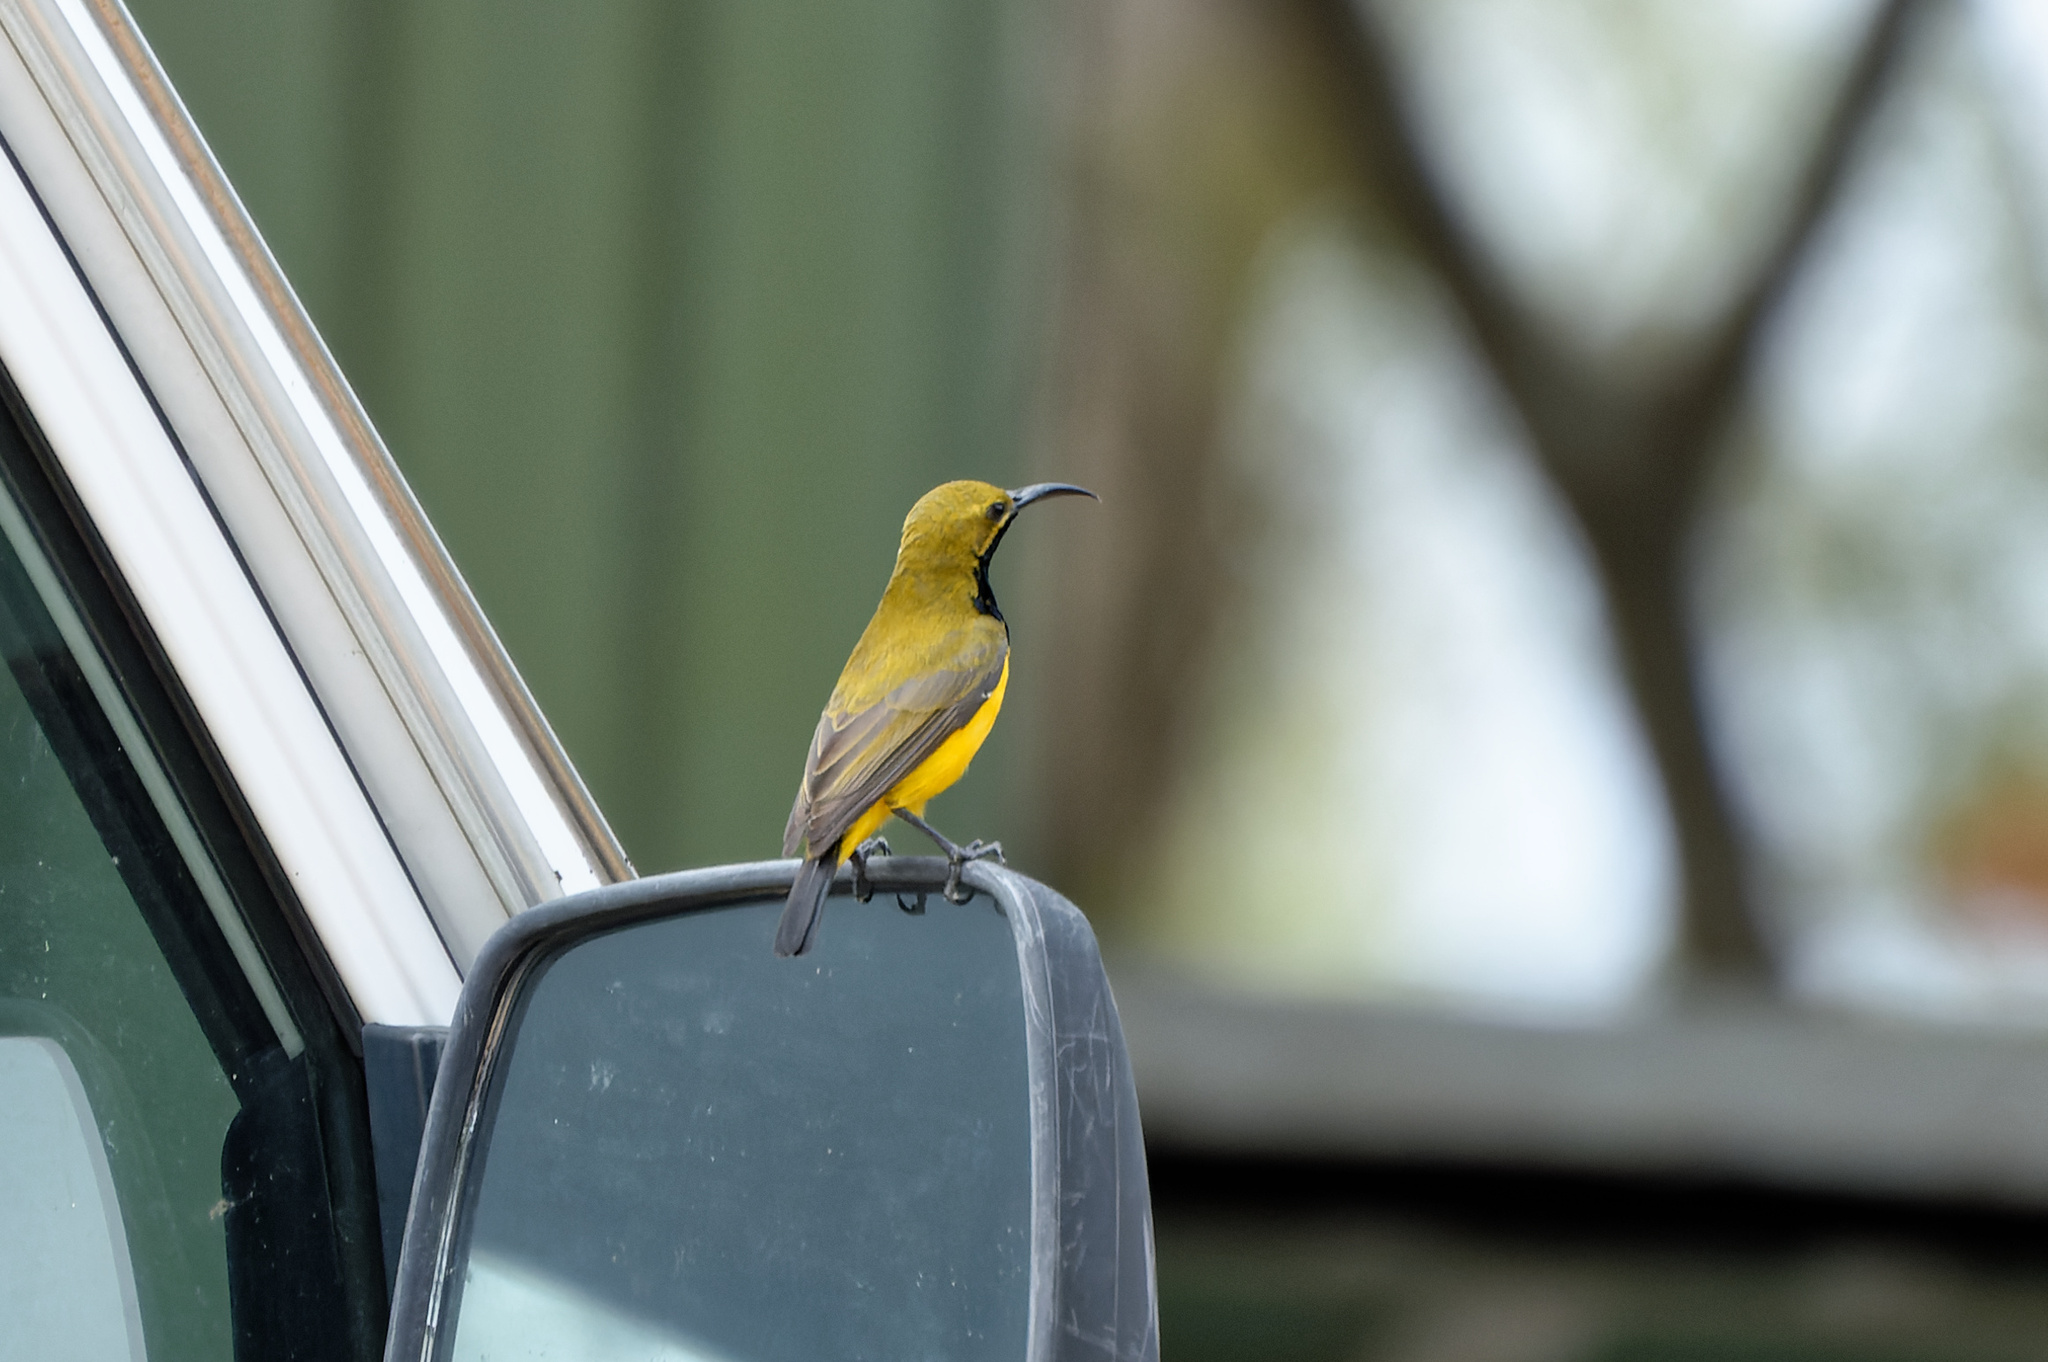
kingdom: Animalia
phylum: Chordata
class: Aves
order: Passeriformes
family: Nectariniidae
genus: Cinnyris
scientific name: Cinnyris
